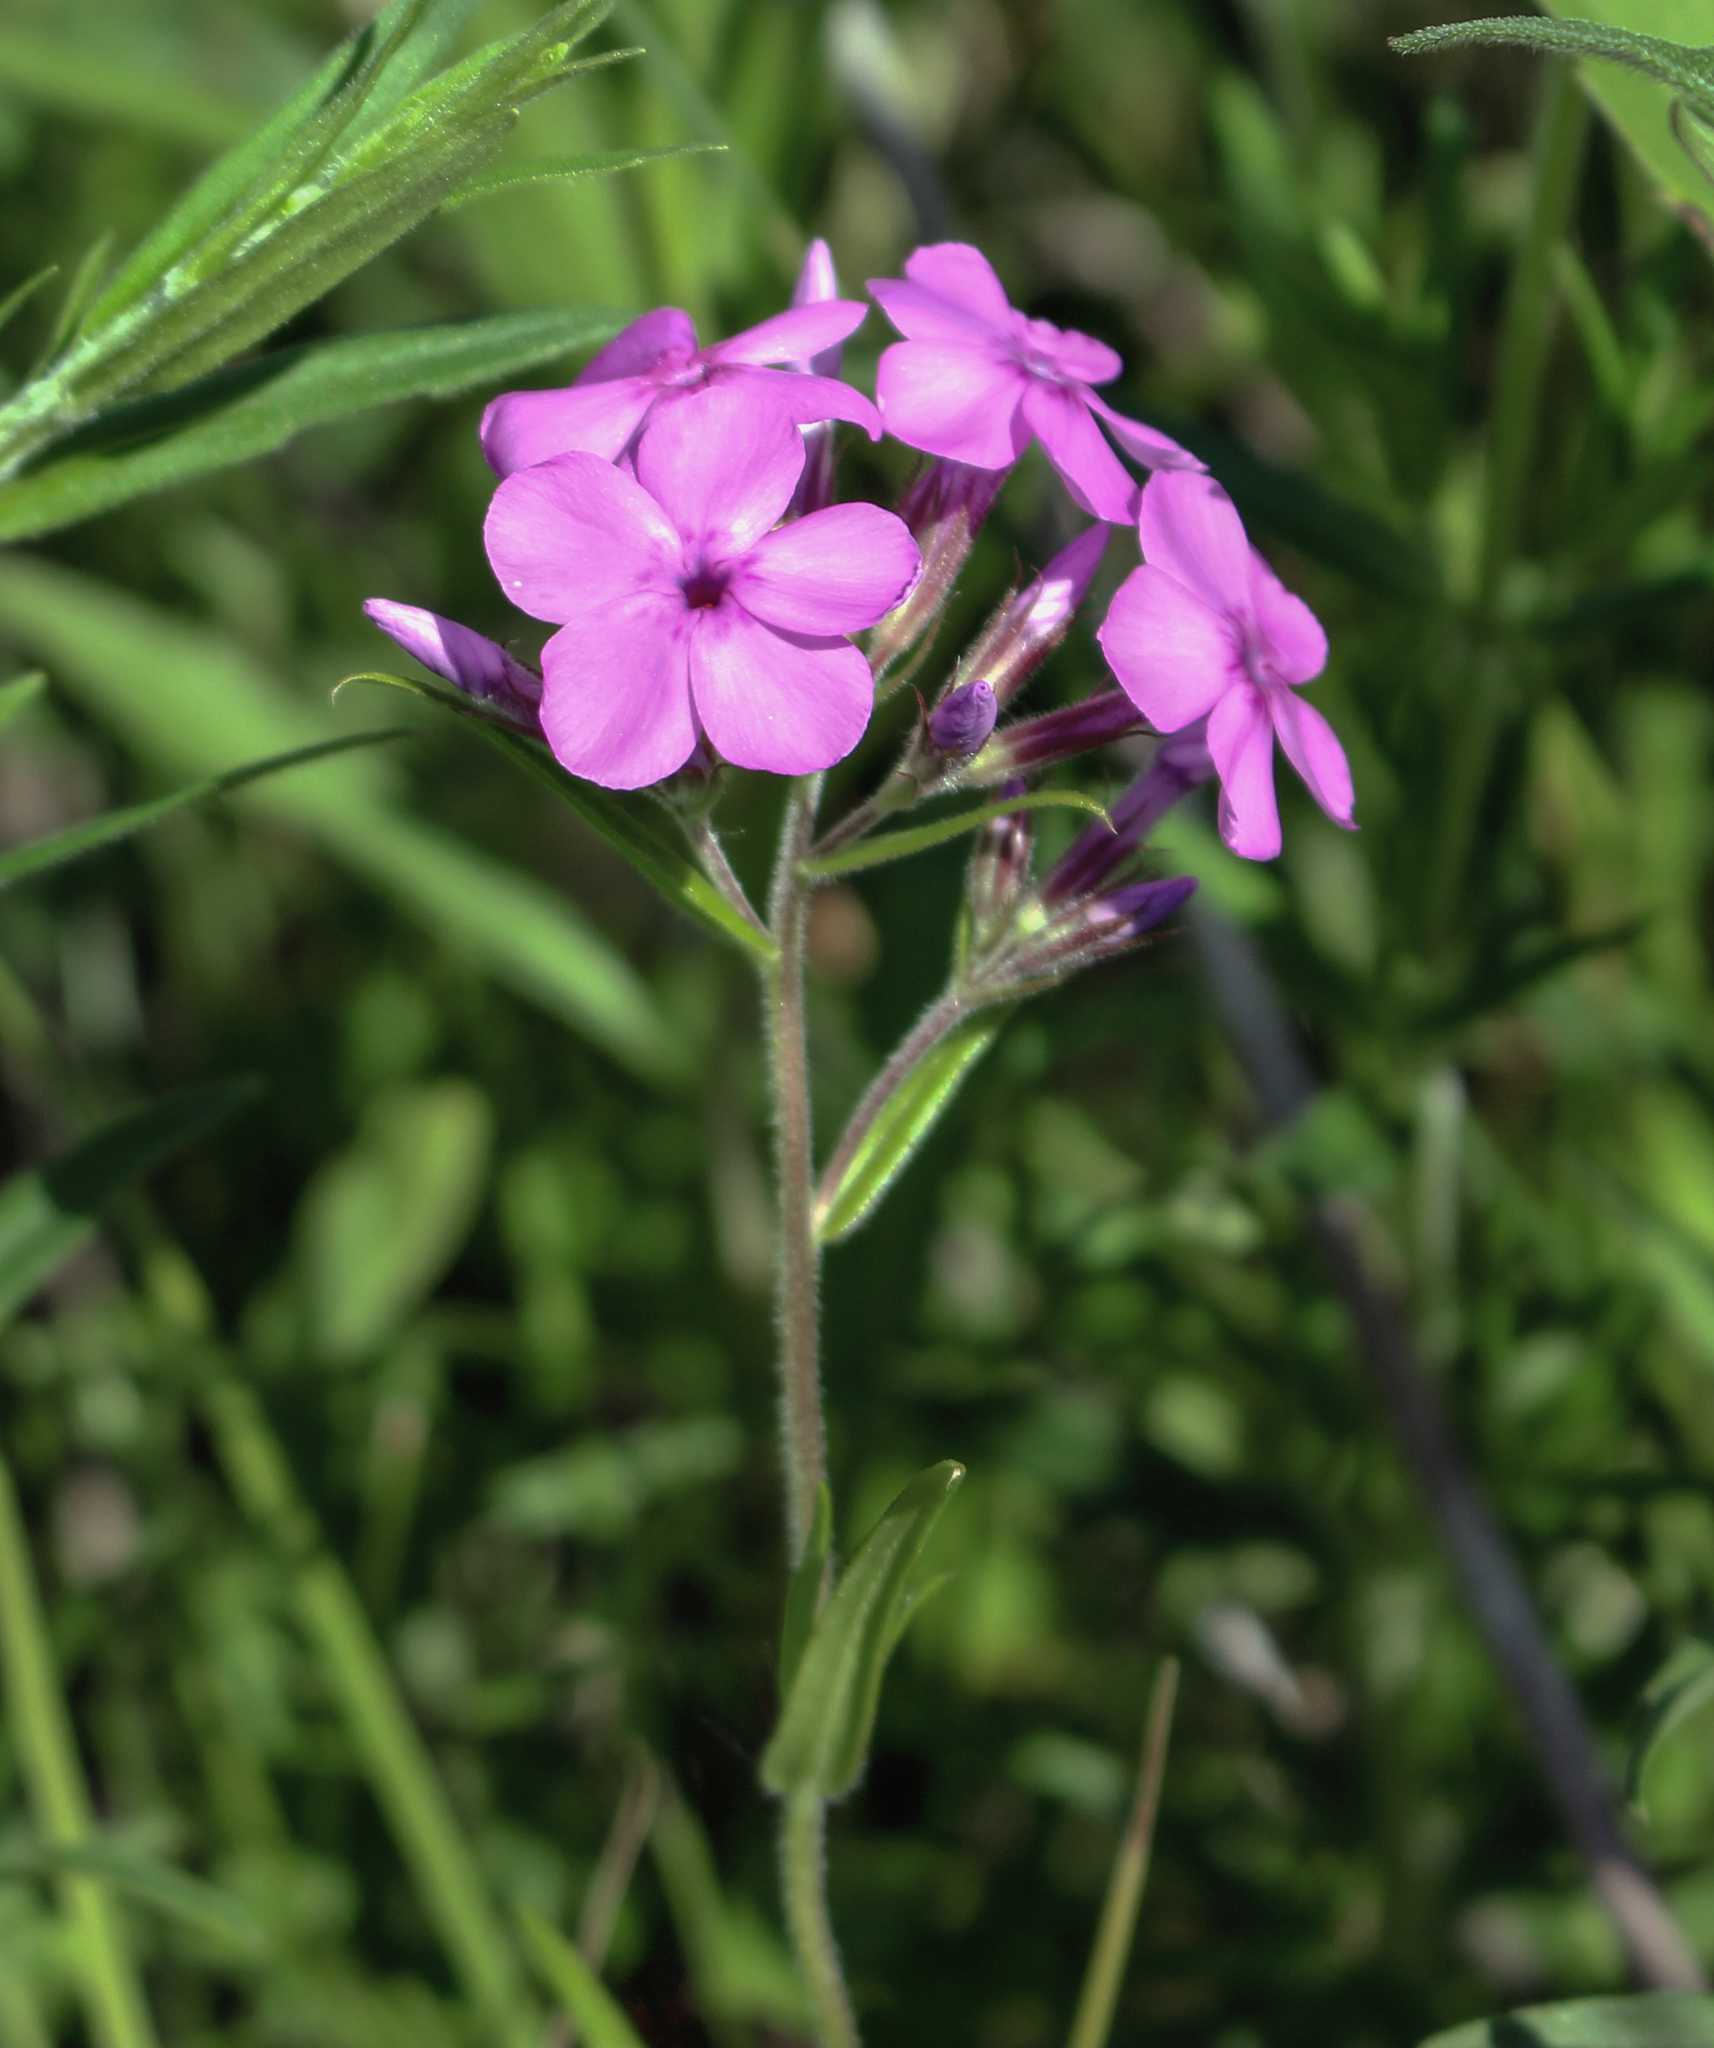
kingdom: Plantae
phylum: Tracheophyta
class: Magnoliopsida
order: Ericales
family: Polemoniaceae
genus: Phlox
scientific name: Phlox pilosa
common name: Prairie phlox
